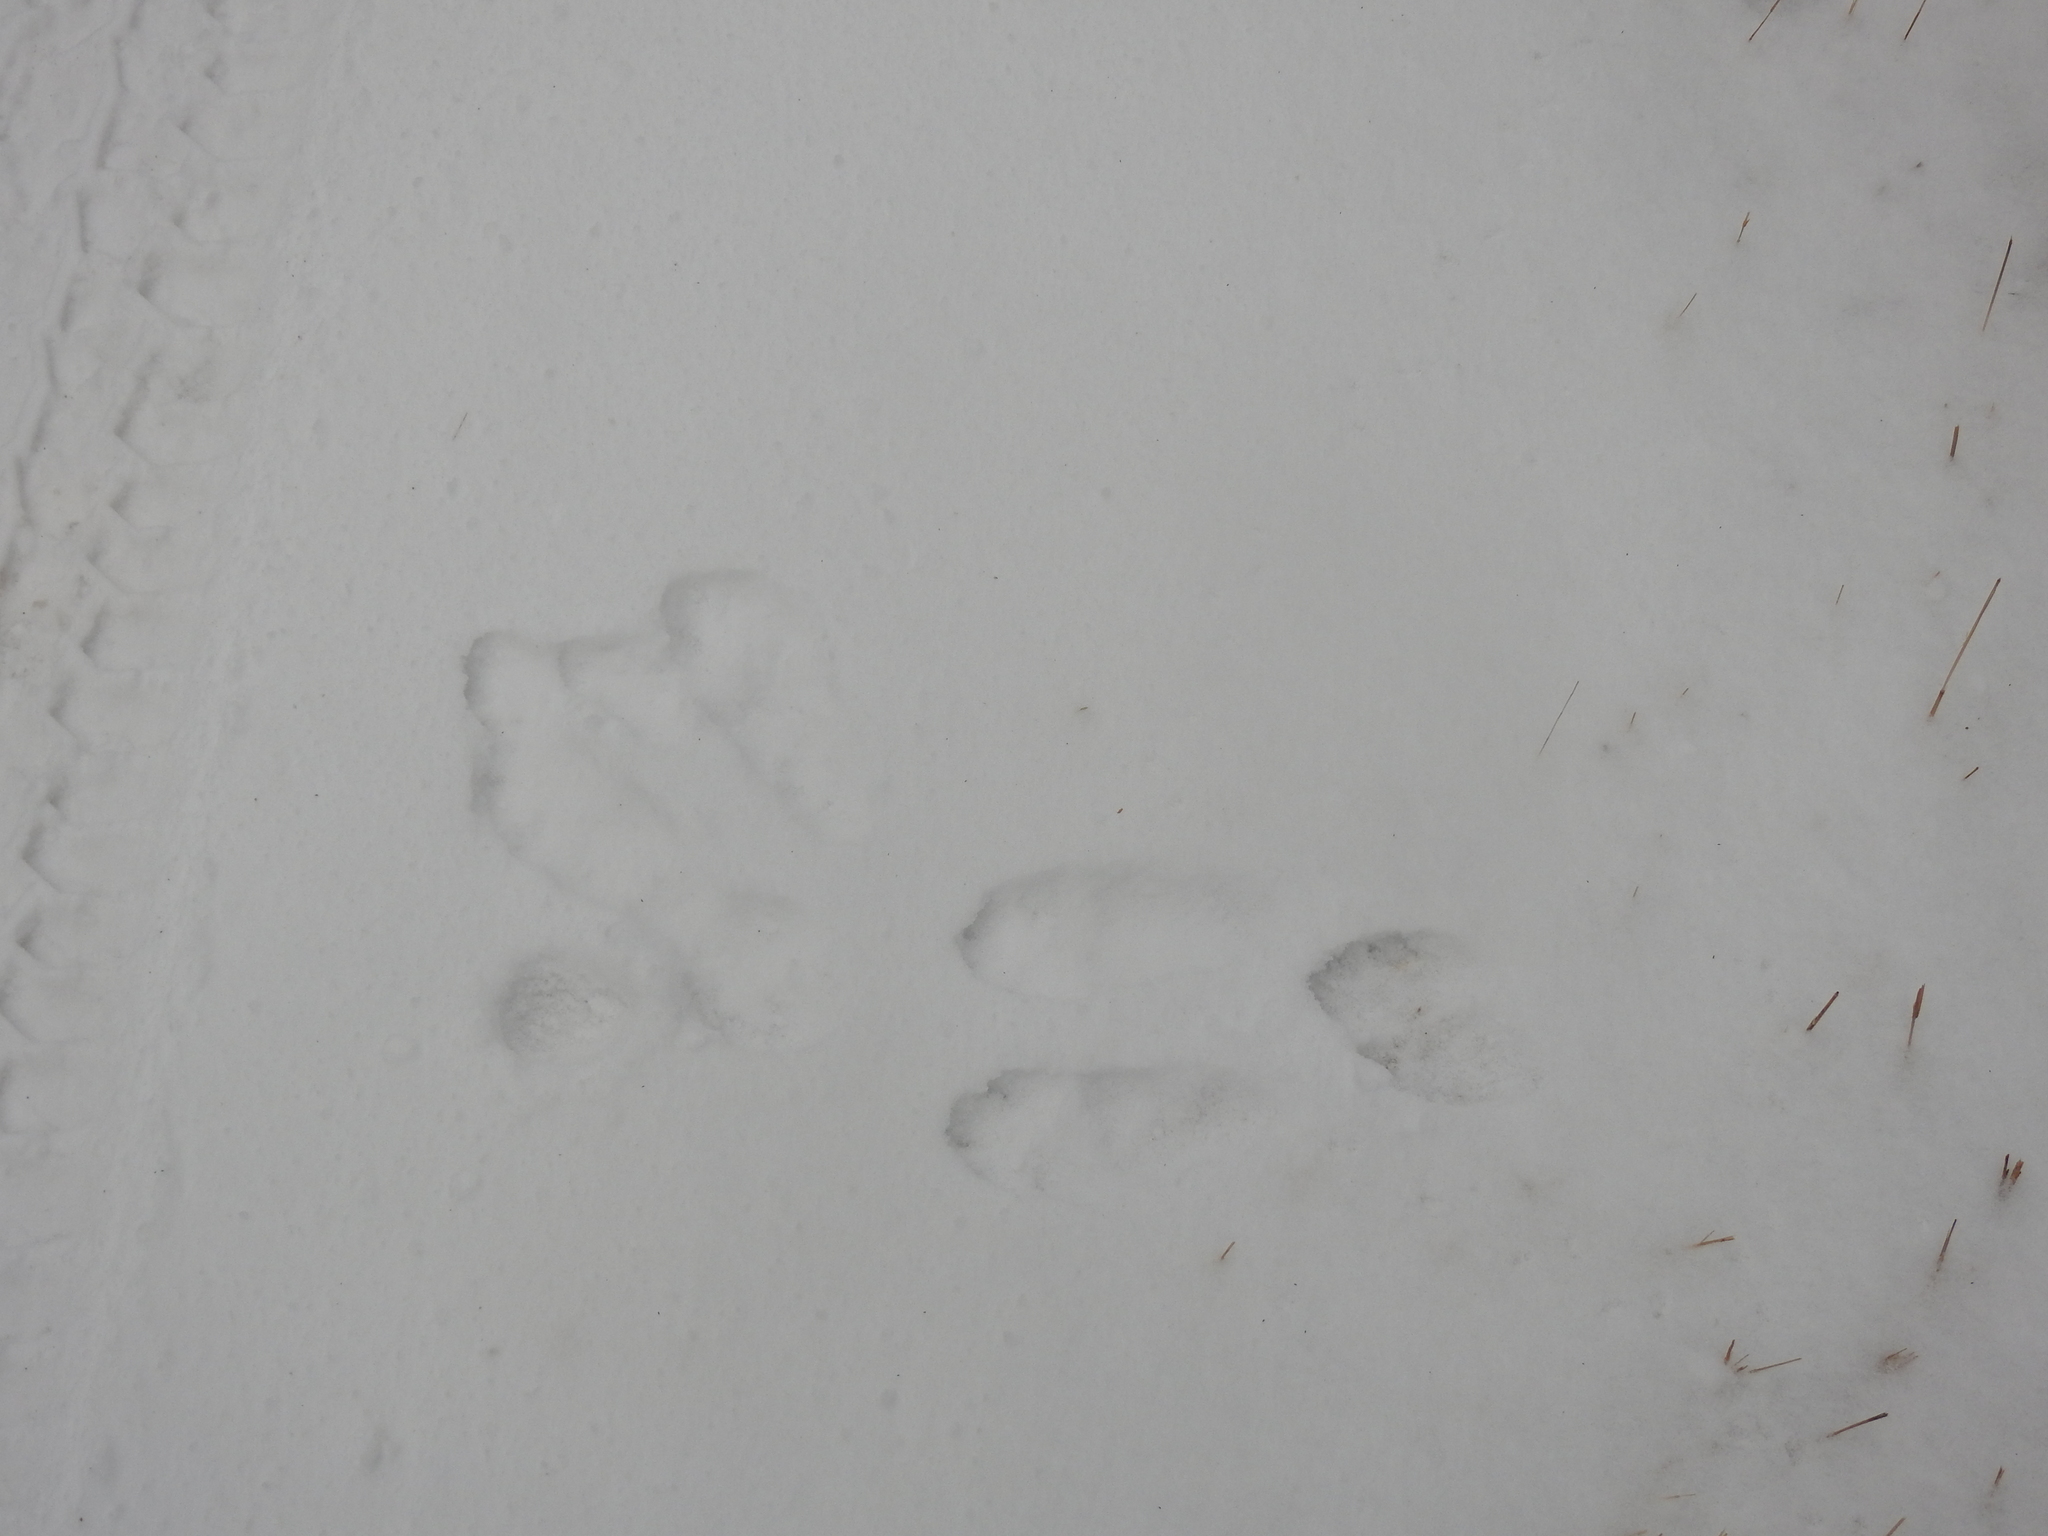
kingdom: Animalia
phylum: Chordata
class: Mammalia
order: Lagomorpha
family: Leporidae
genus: Lepus
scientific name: Lepus americanus
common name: Snowshoe hare
